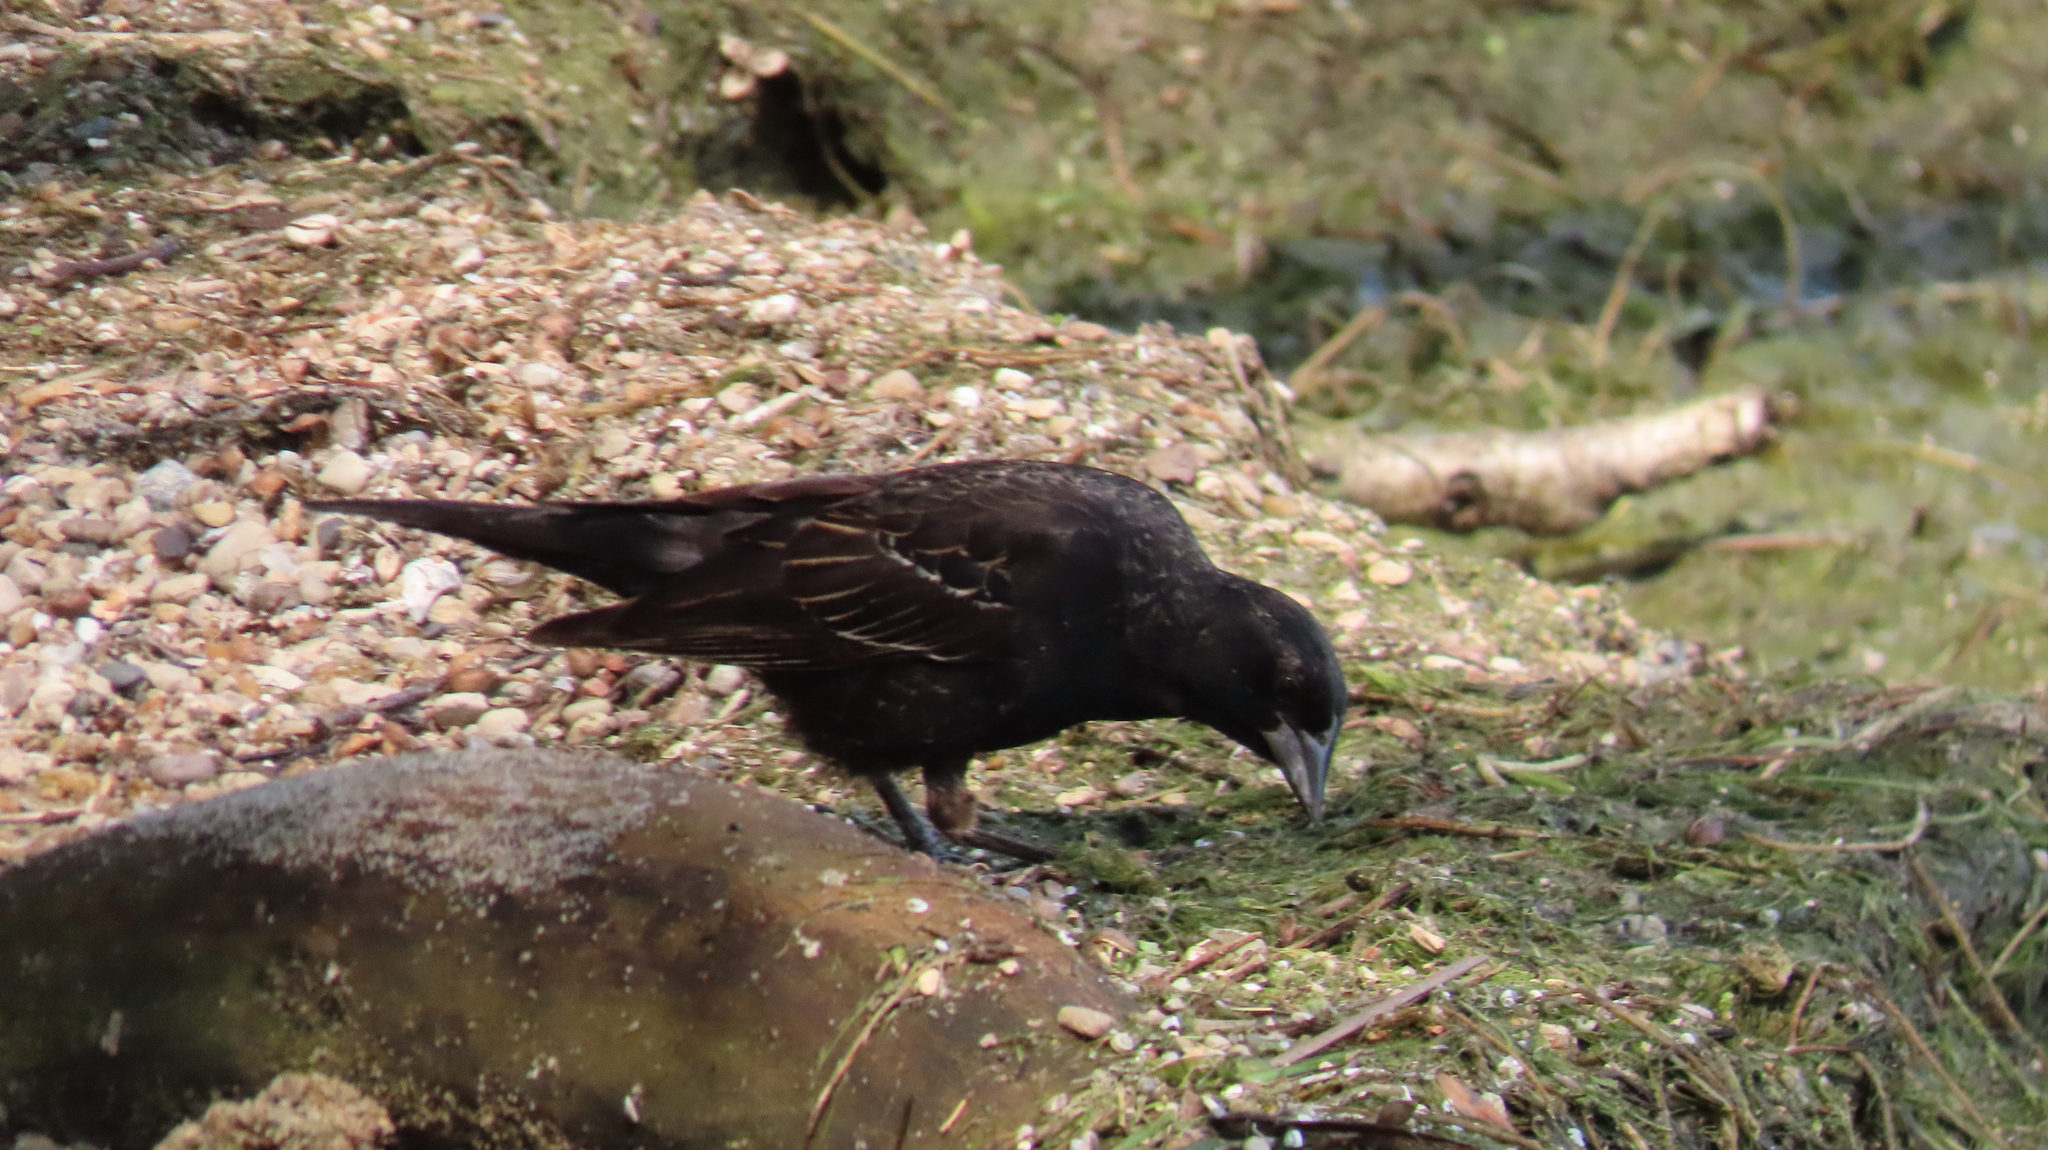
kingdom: Animalia
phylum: Chordata
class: Aves
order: Passeriformes
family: Icteridae
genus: Agelaius
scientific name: Agelaius phoeniceus
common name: Red-winged blackbird
